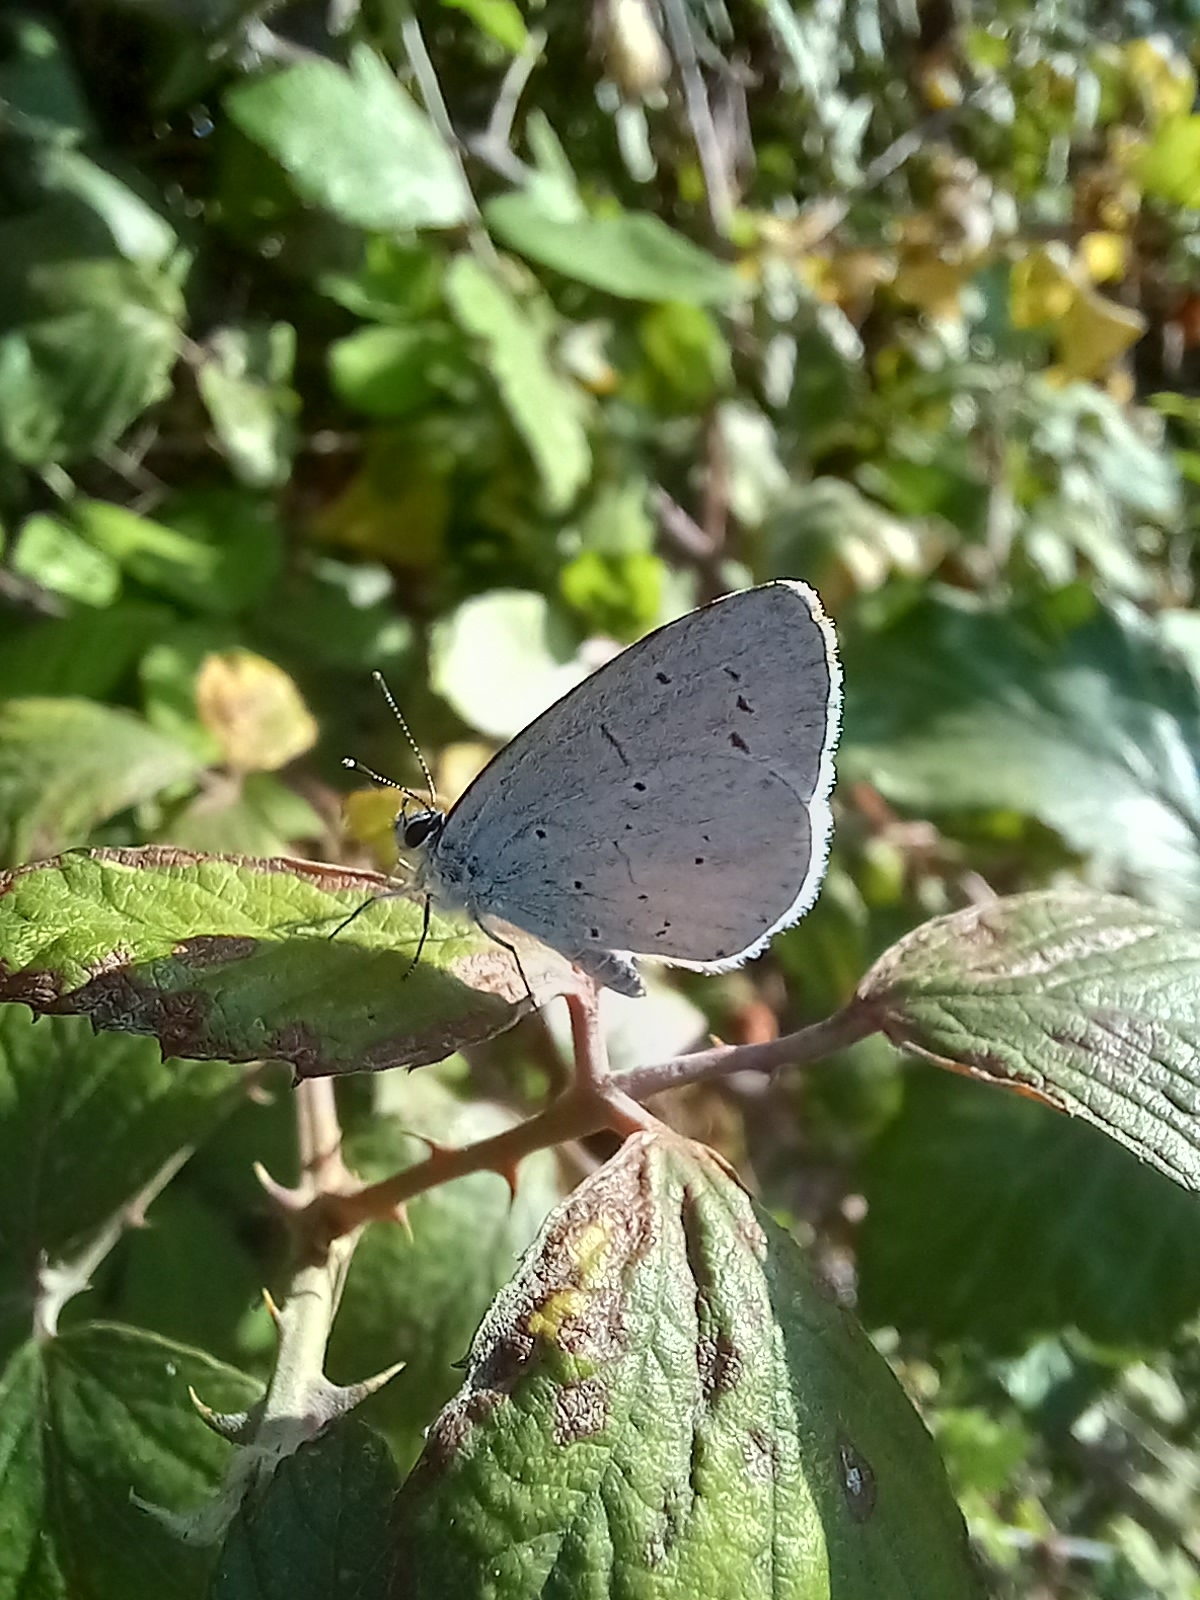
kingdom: Animalia
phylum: Arthropoda
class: Insecta
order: Lepidoptera
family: Lycaenidae
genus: Celastrina
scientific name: Celastrina argiolus
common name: Holly blue
